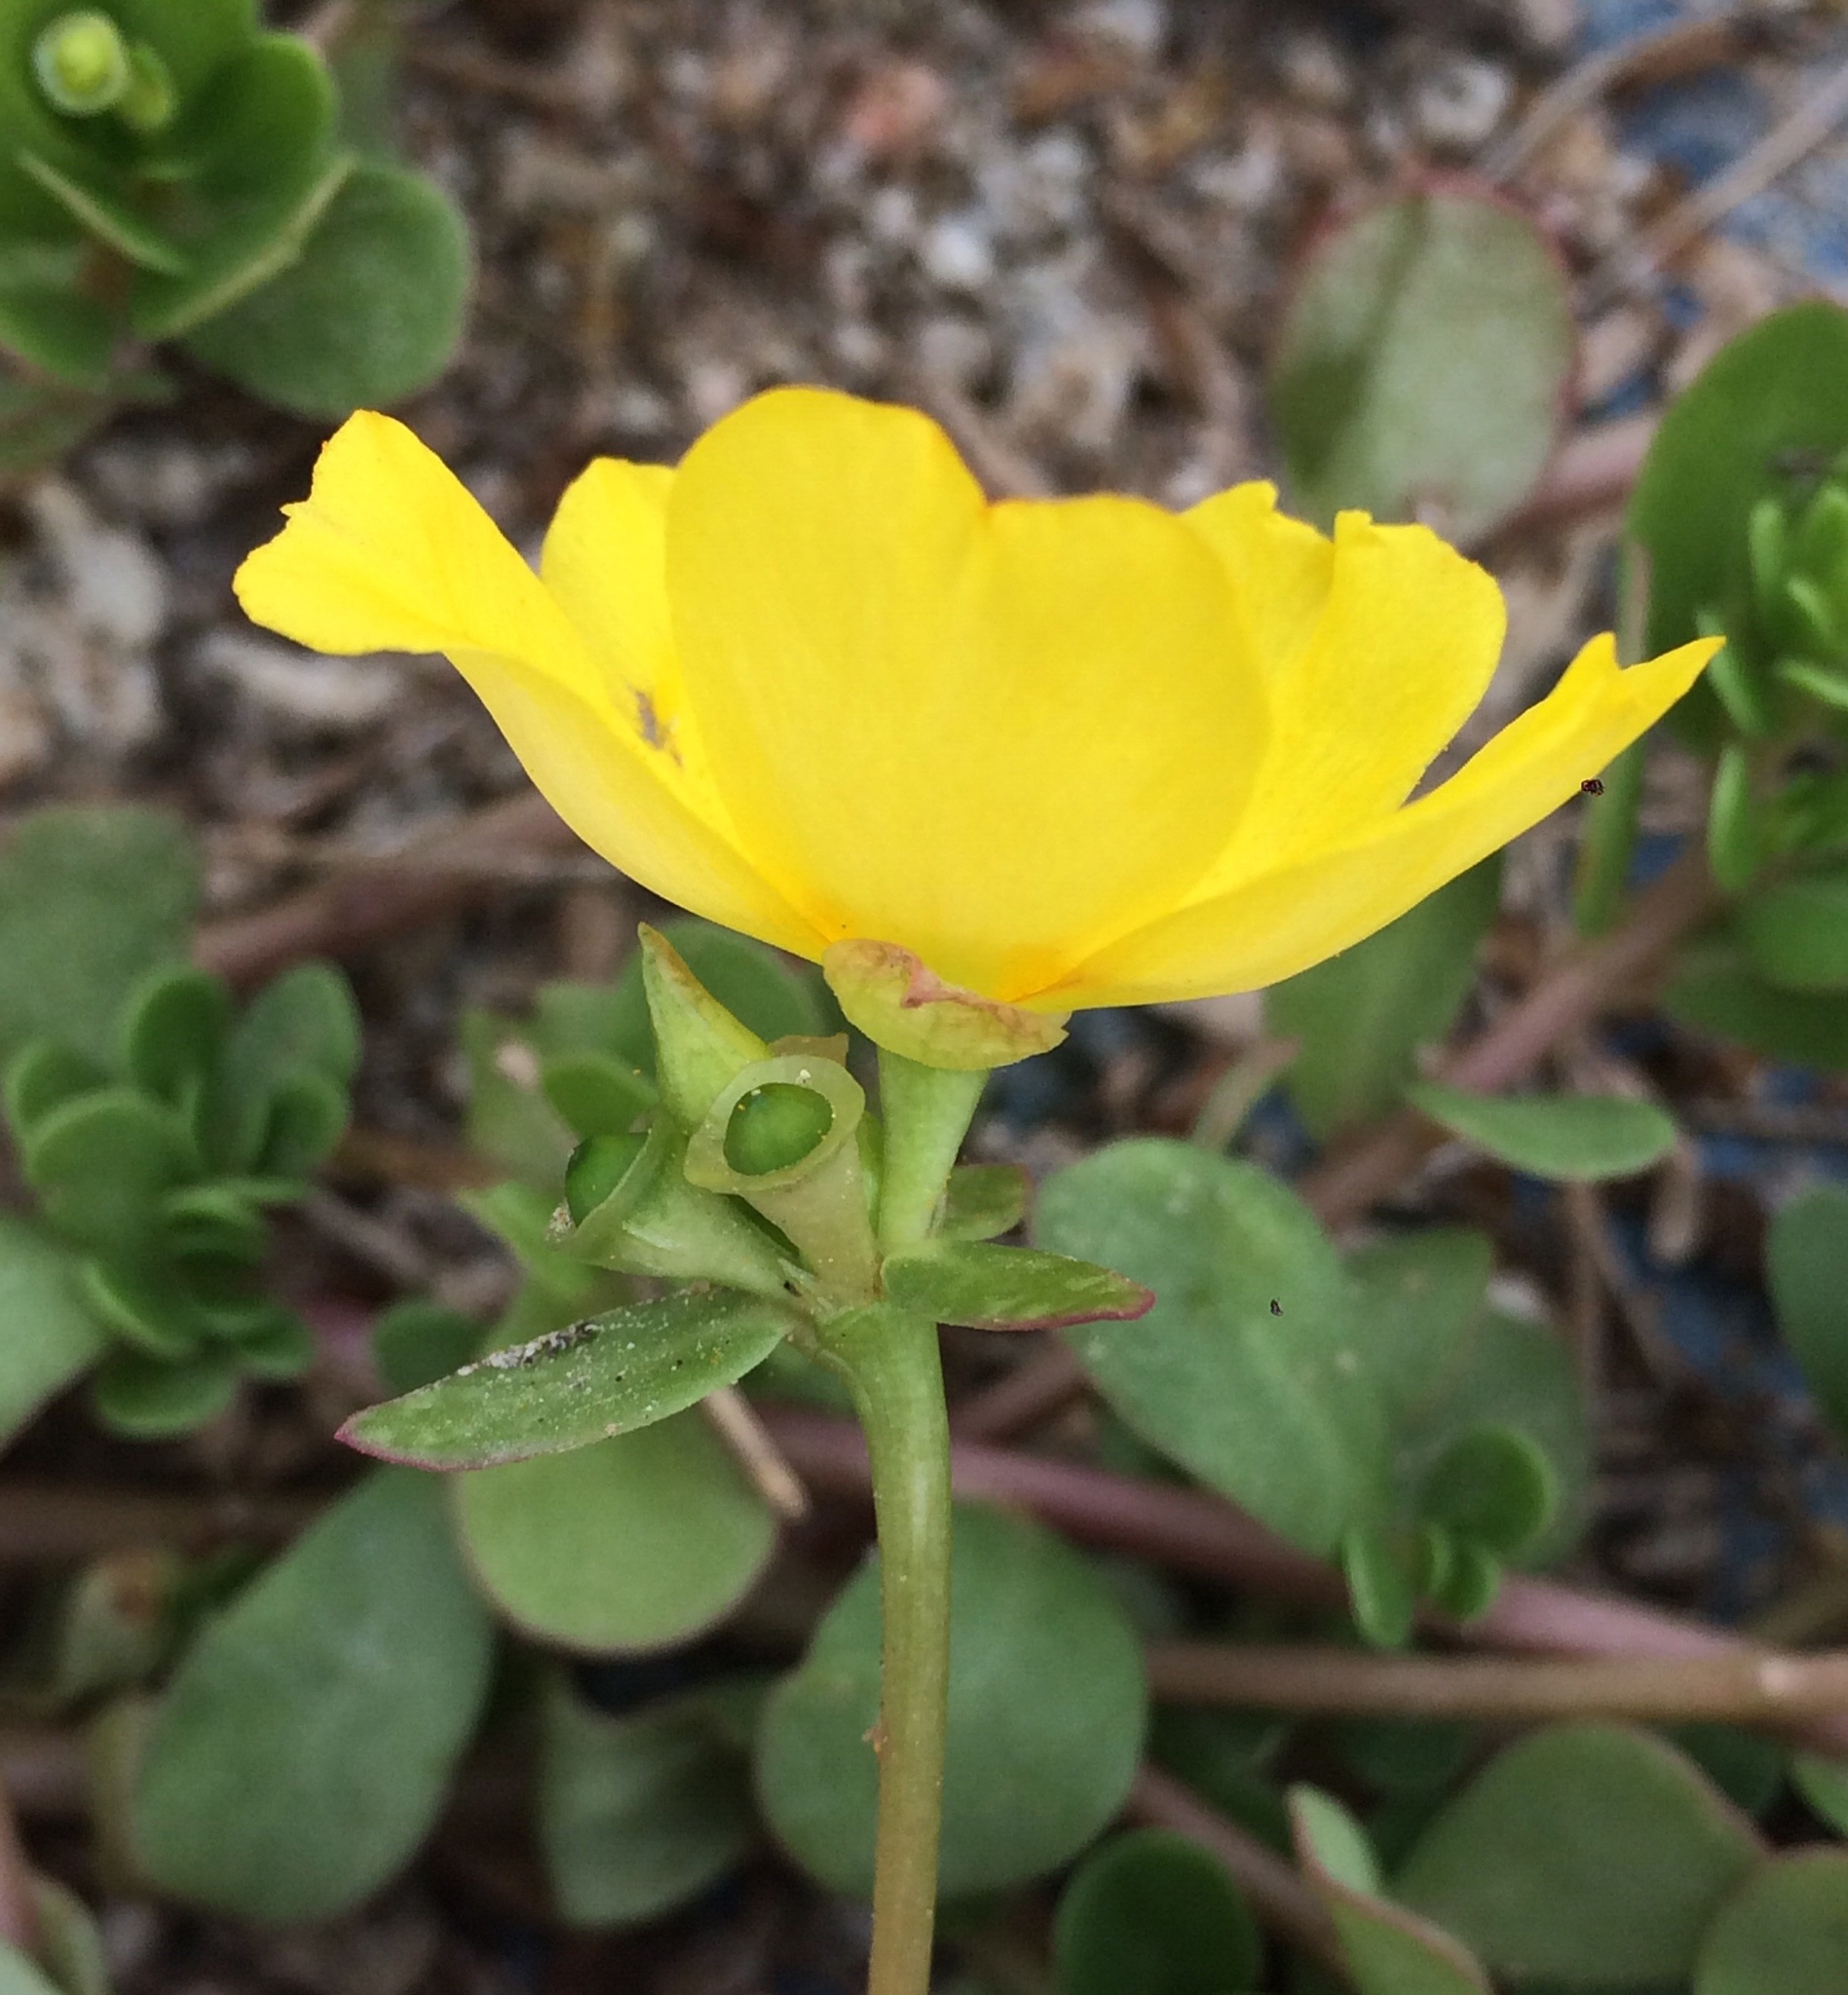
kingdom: Plantae
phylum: Tracheophyta
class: Magnoliopsida
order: Caryophyllales
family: Portulacaceae
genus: Portulaca
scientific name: Portulaca umbraticola
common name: Wingpod purslane
